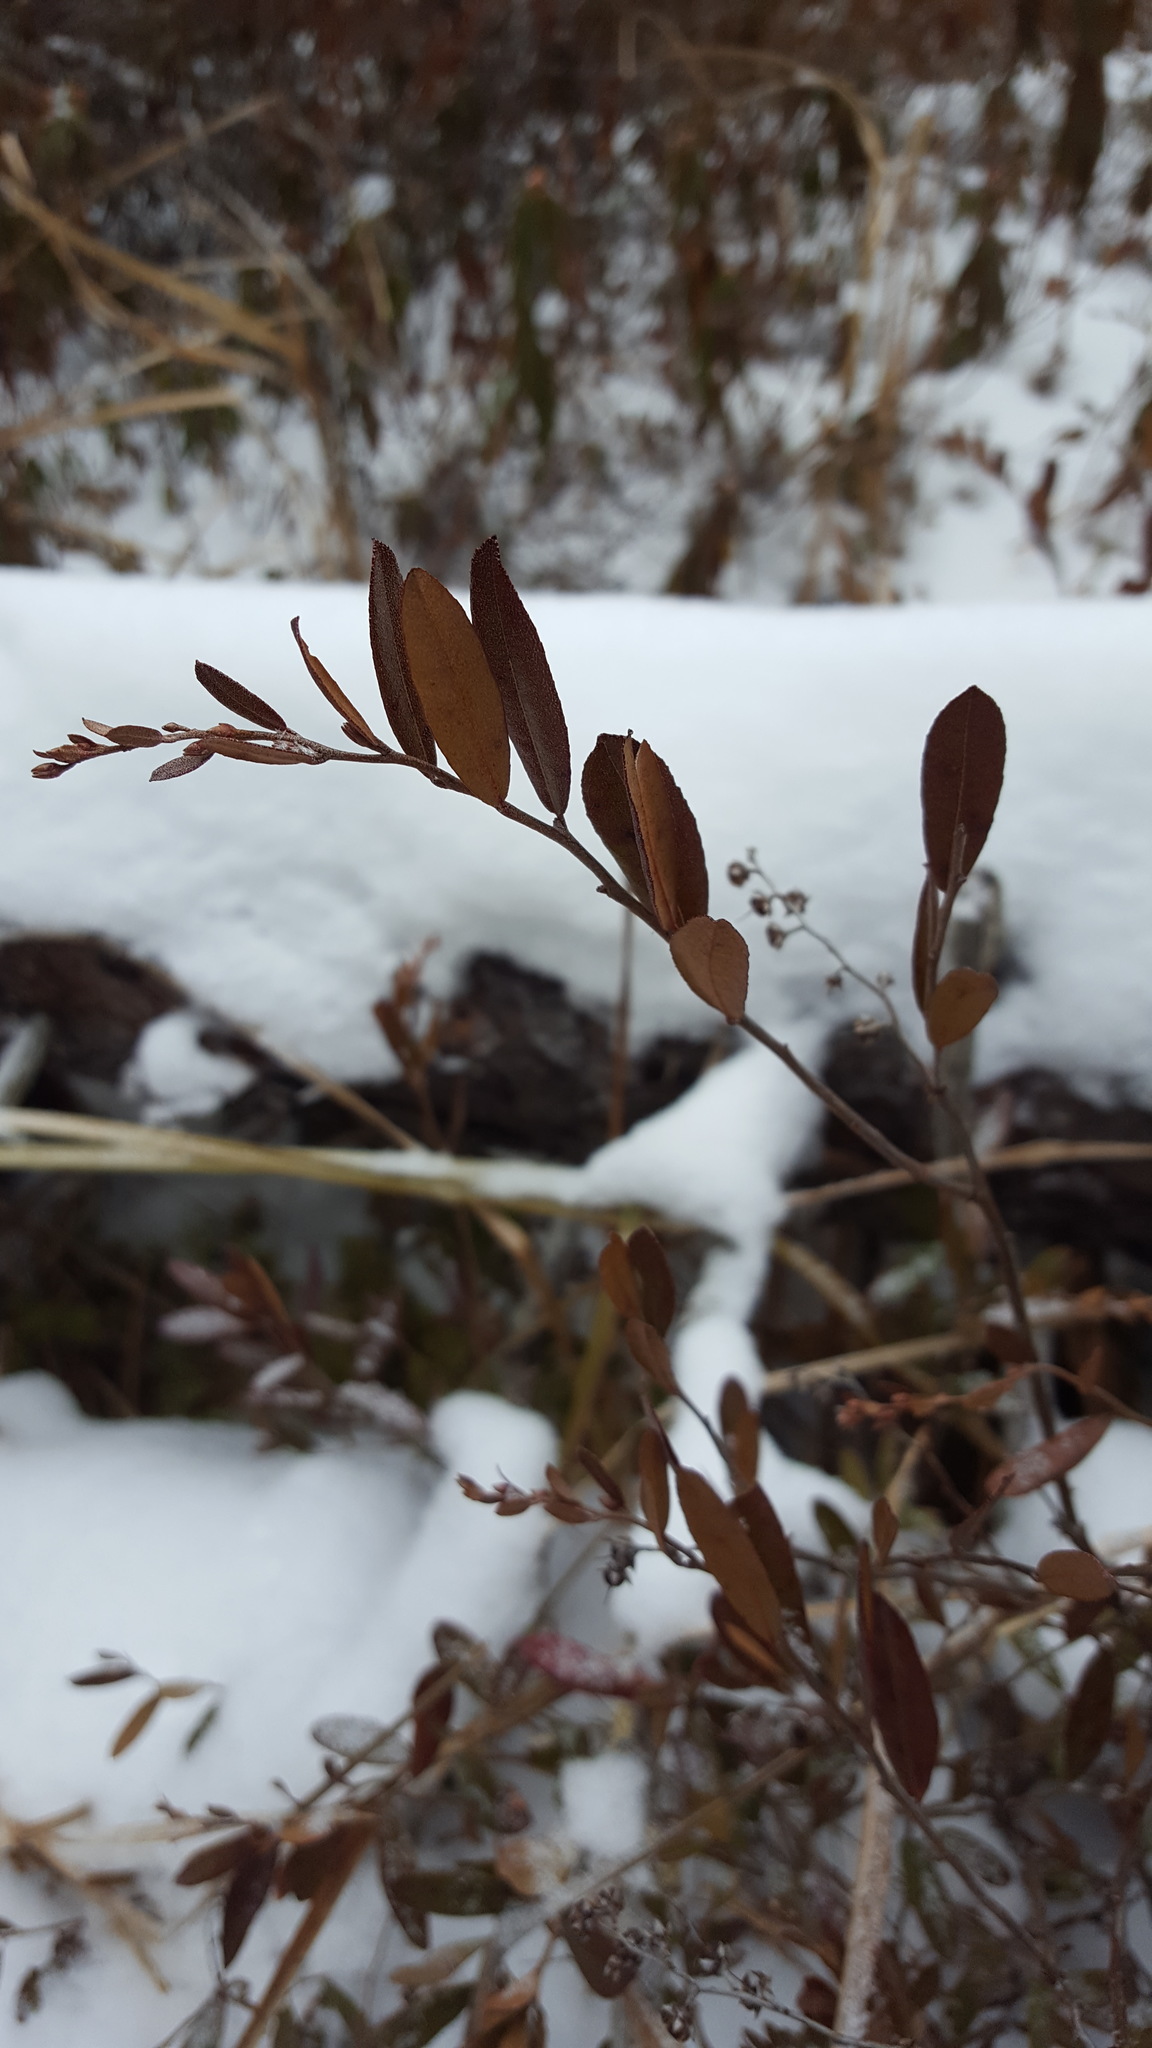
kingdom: Plantae
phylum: Tracheophyta
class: Magnoliopsida
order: Ericales
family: Ericaceae
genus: Chamaedaphne
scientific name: Chamaedaphne calyculata
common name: Leatherleaf
